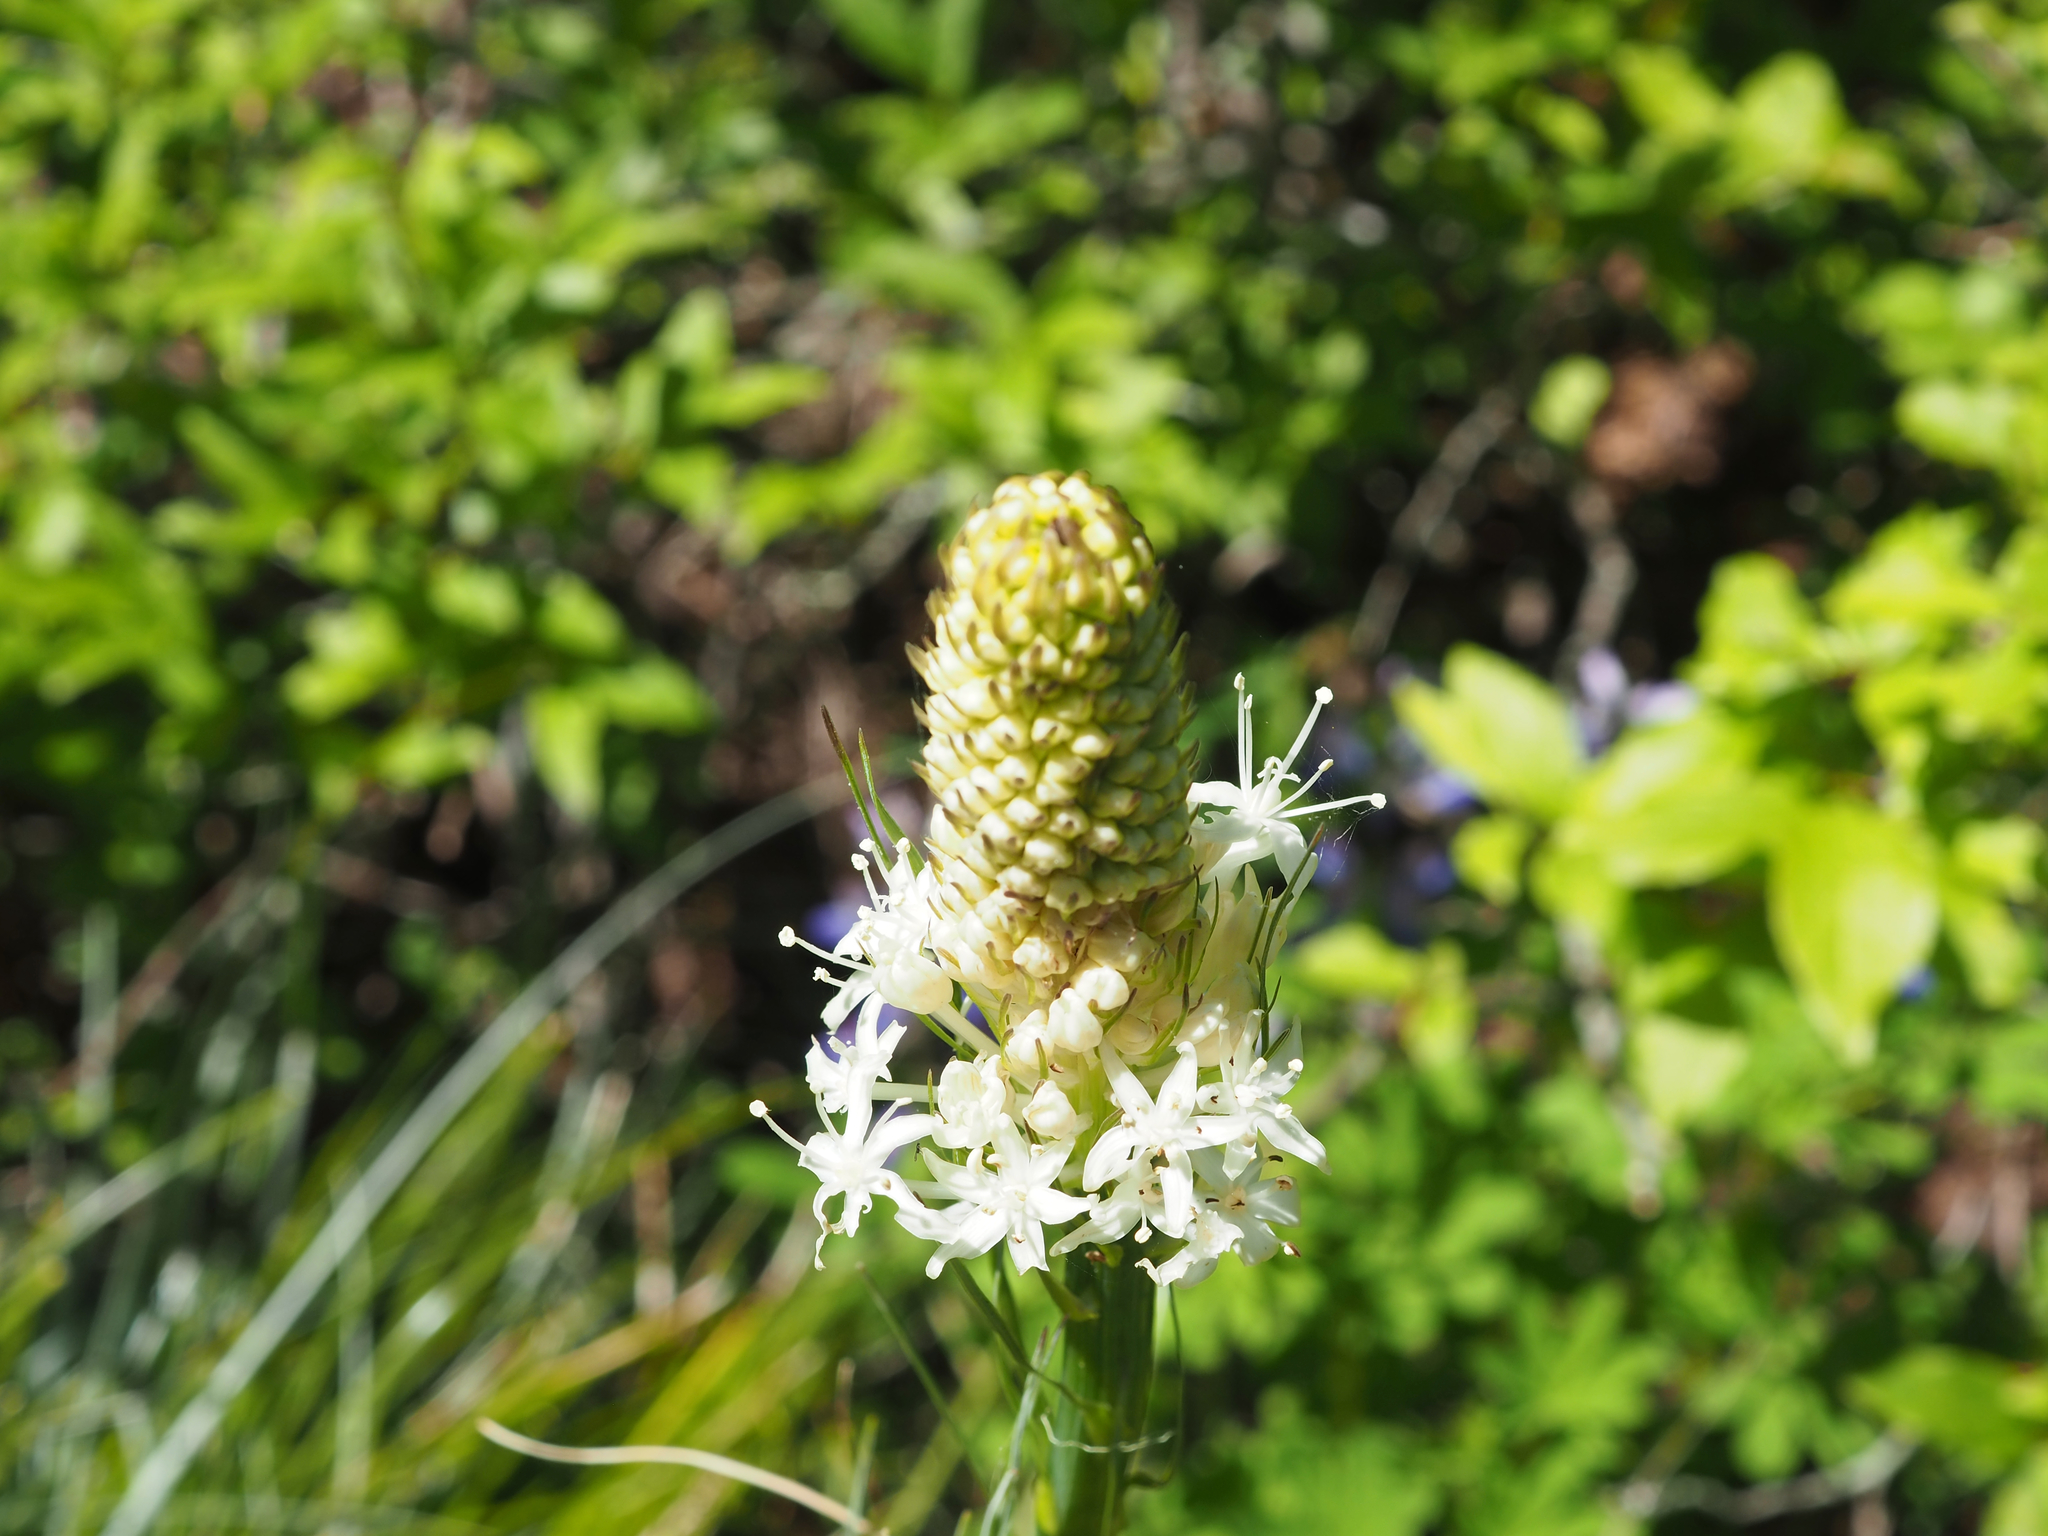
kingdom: Plantae
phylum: Tracheophyta
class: Liliopsida
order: Liliales
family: Melanthiaceae
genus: Xerophyllum
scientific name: Xerophyllum tenax
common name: Bear-grass
